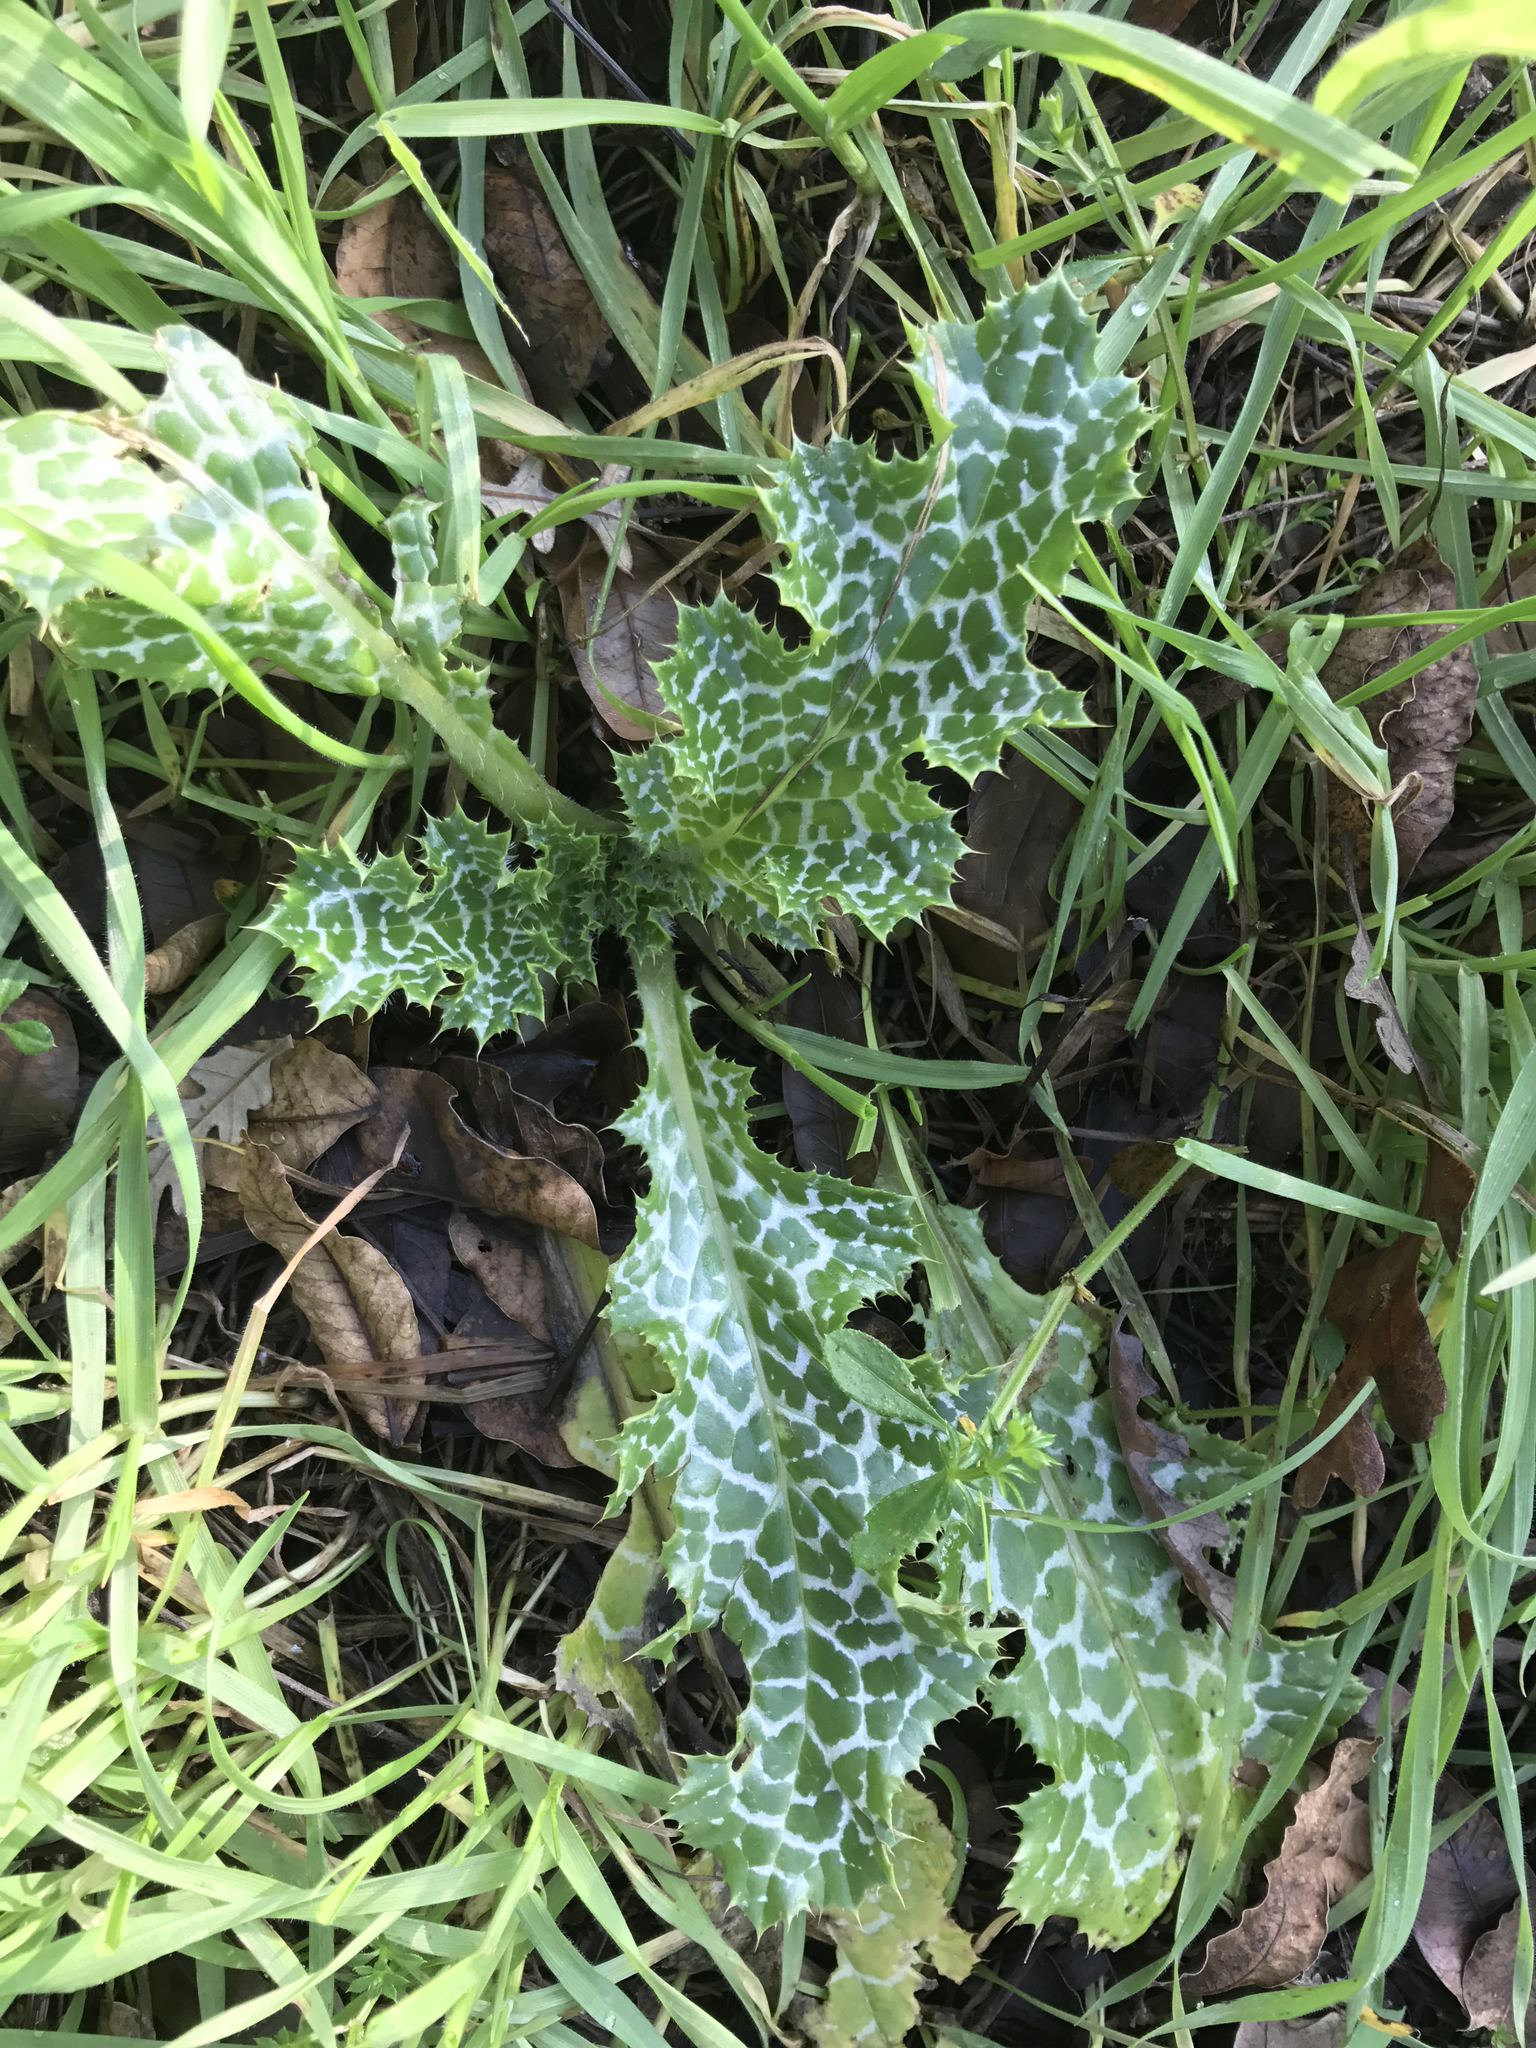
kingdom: Plantae
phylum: Tracheophyta
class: Magnoliopsida
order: Asterales
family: Asteraceae
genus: Silybum
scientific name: Silybum marianum
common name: Milk thistle
